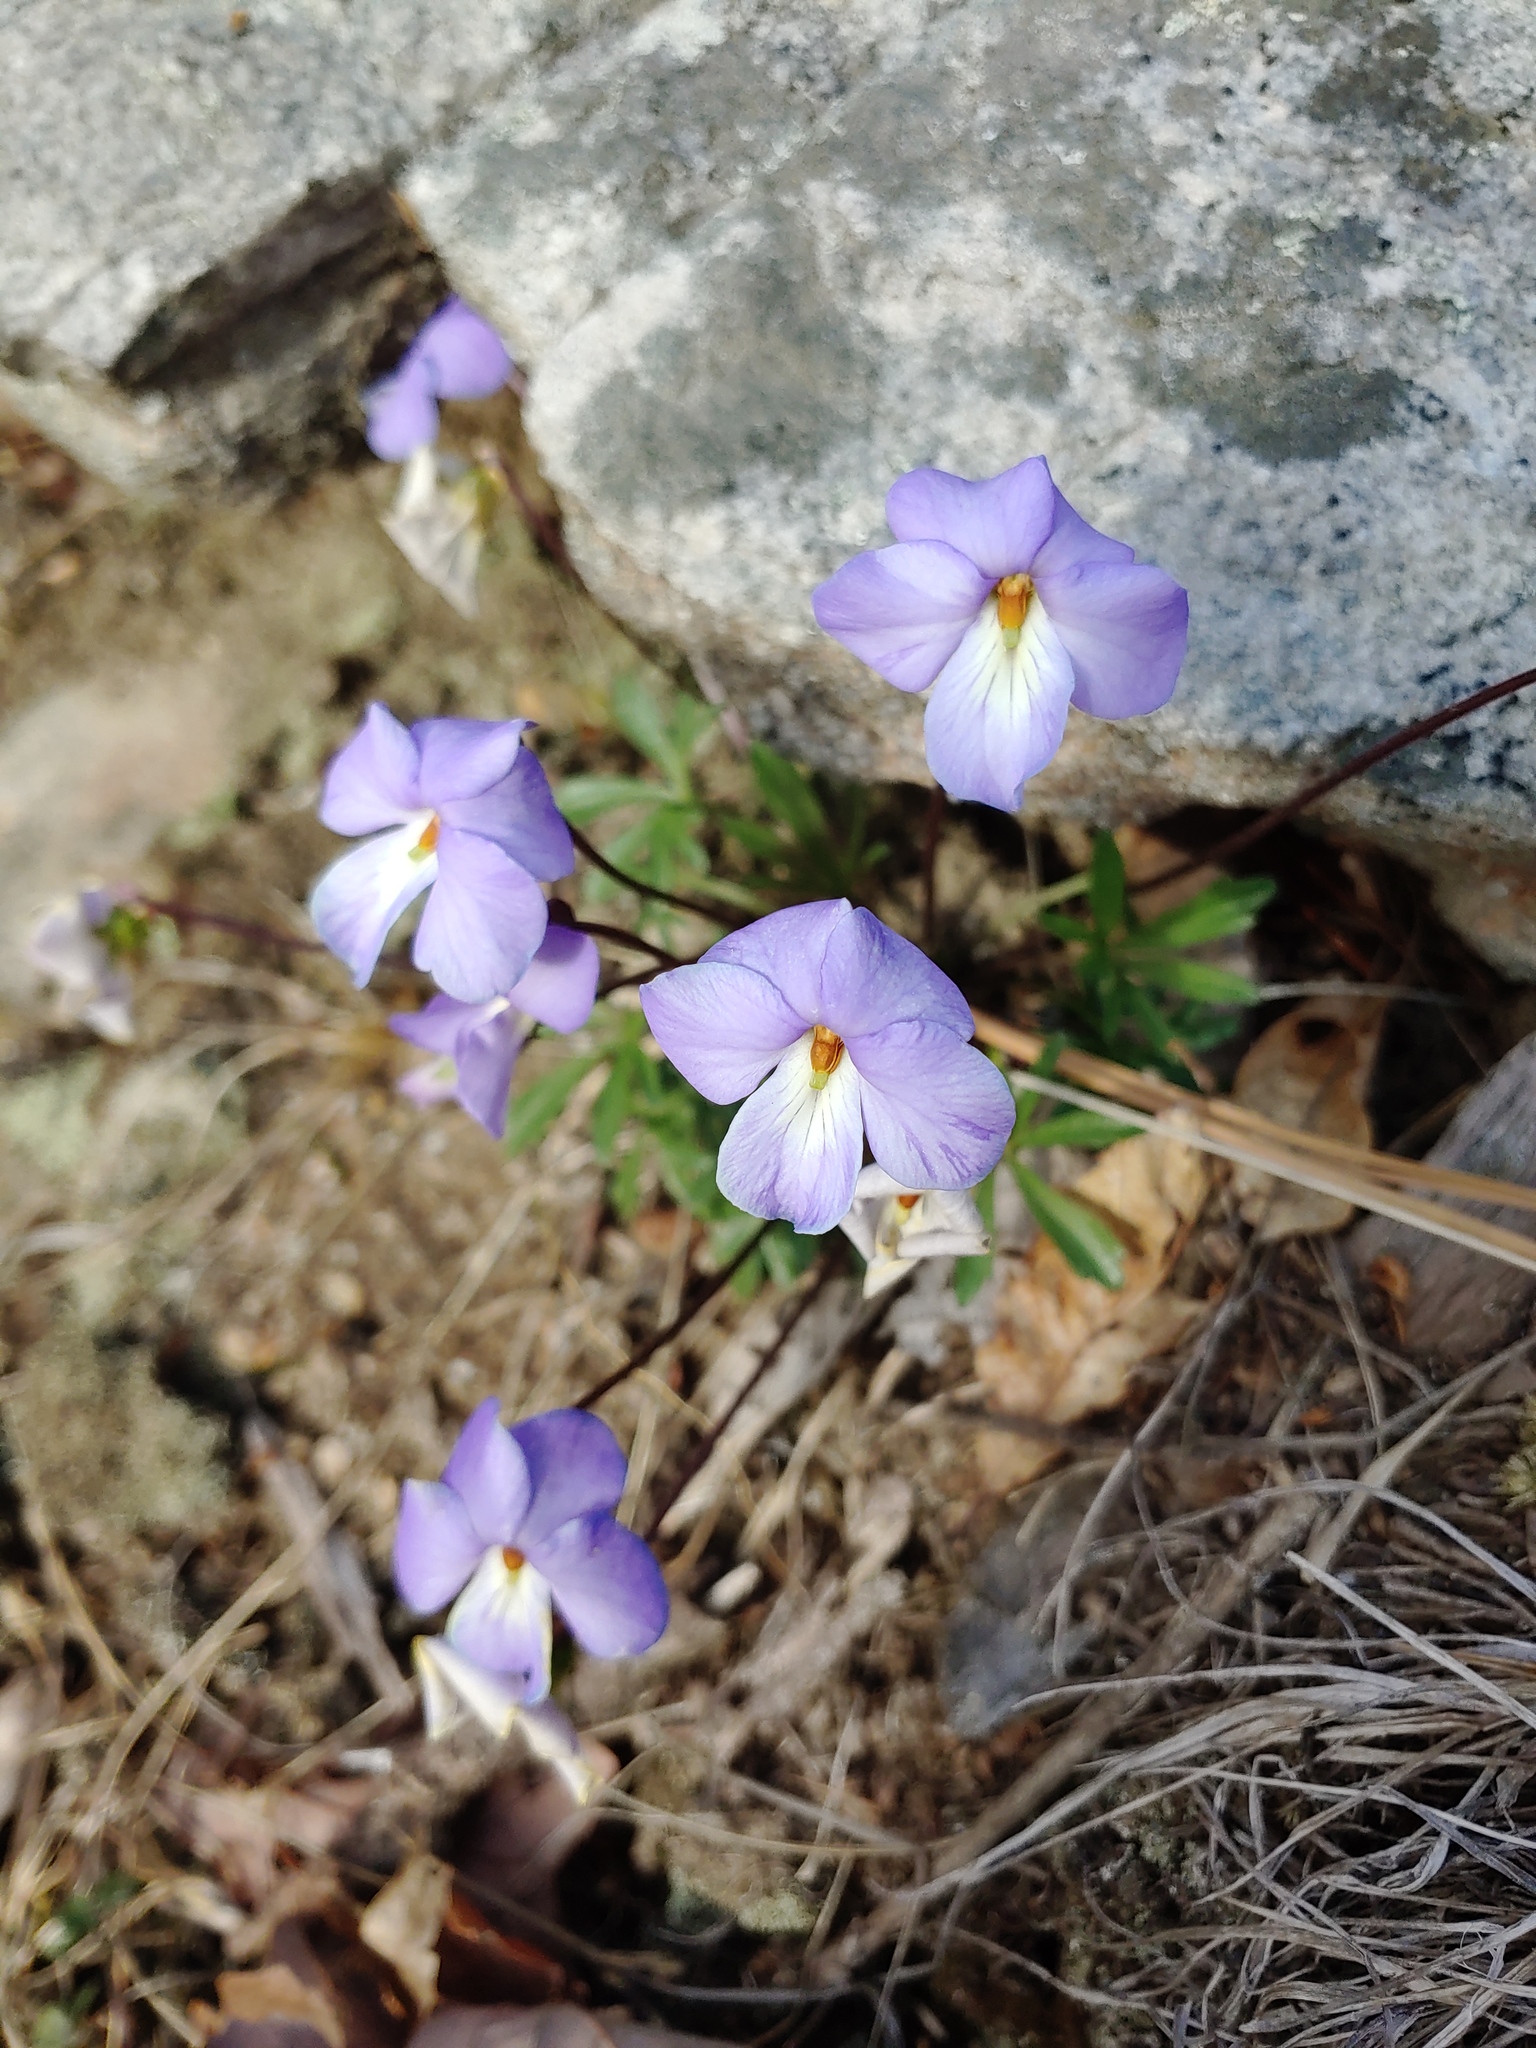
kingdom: Plantae
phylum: Tracheophyta
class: Magnoliopsida
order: Malpighiales
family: Violaceae
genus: Viola
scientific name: Viola pedata
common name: Pansy violet
